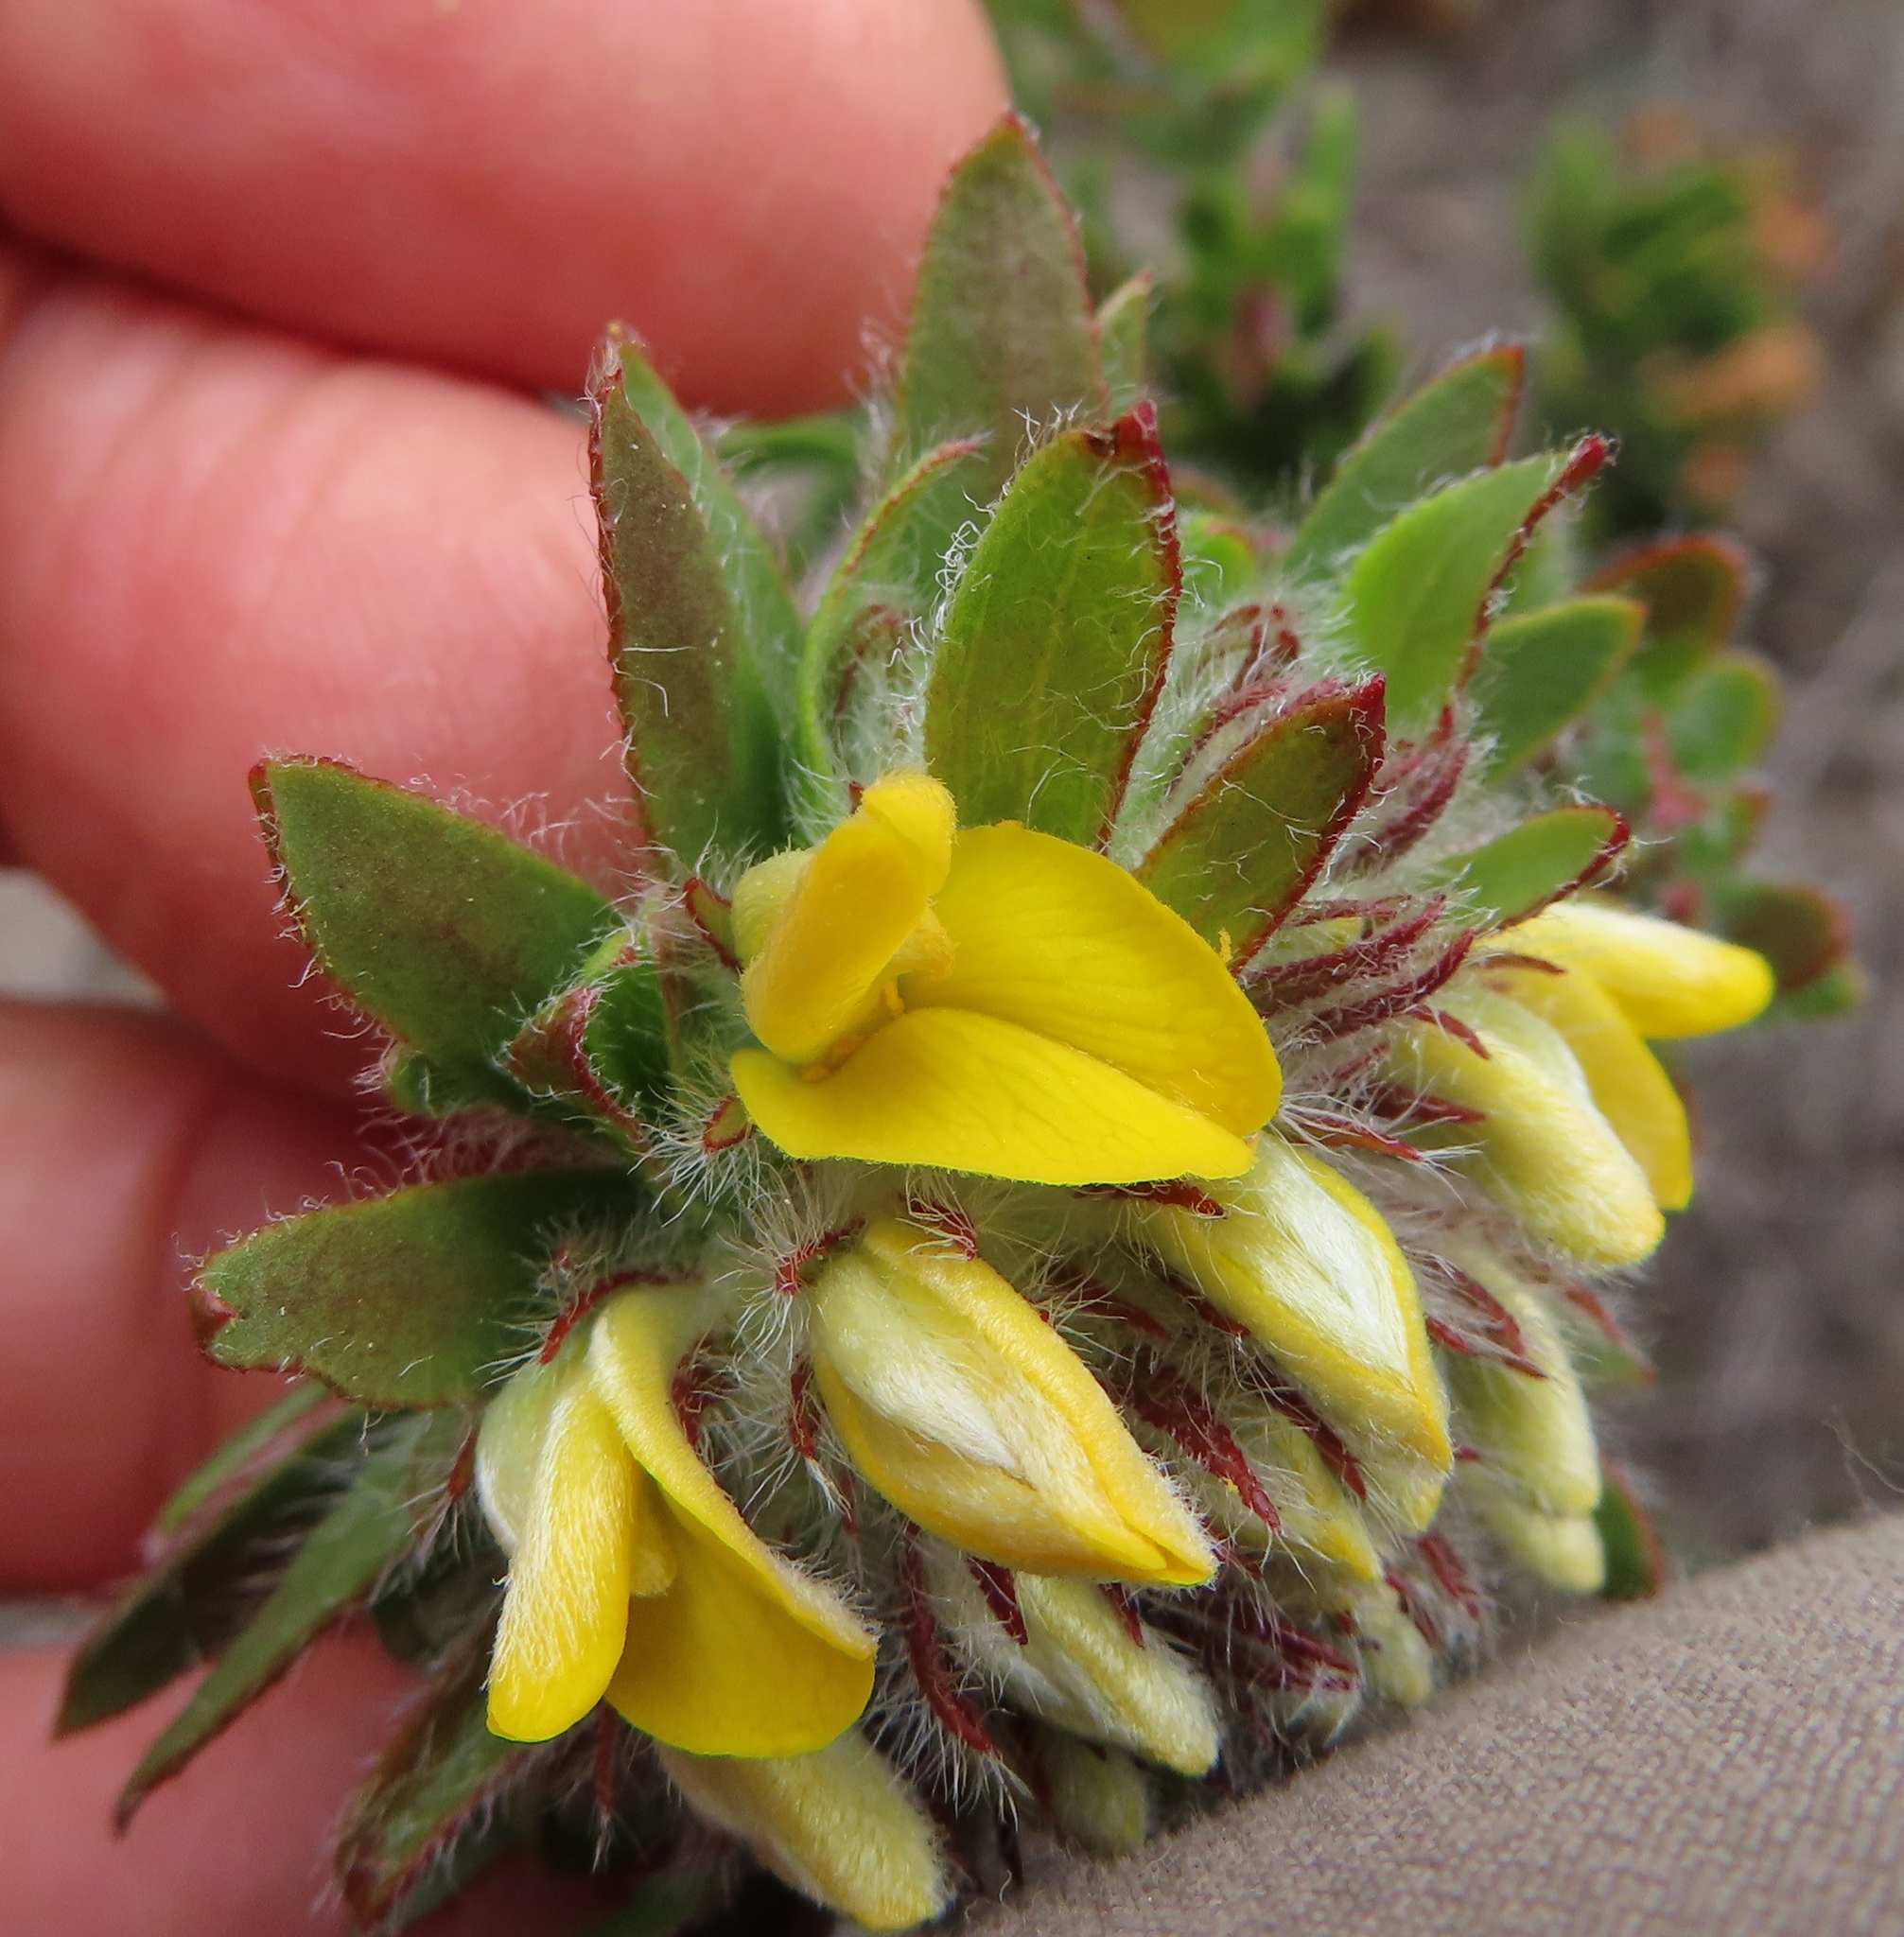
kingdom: Plantae
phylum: Tracheophyta
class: Magnoliopsida
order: Fabales
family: Fabaceae
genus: Aspalathus
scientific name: Aspalathus aspalathoides
